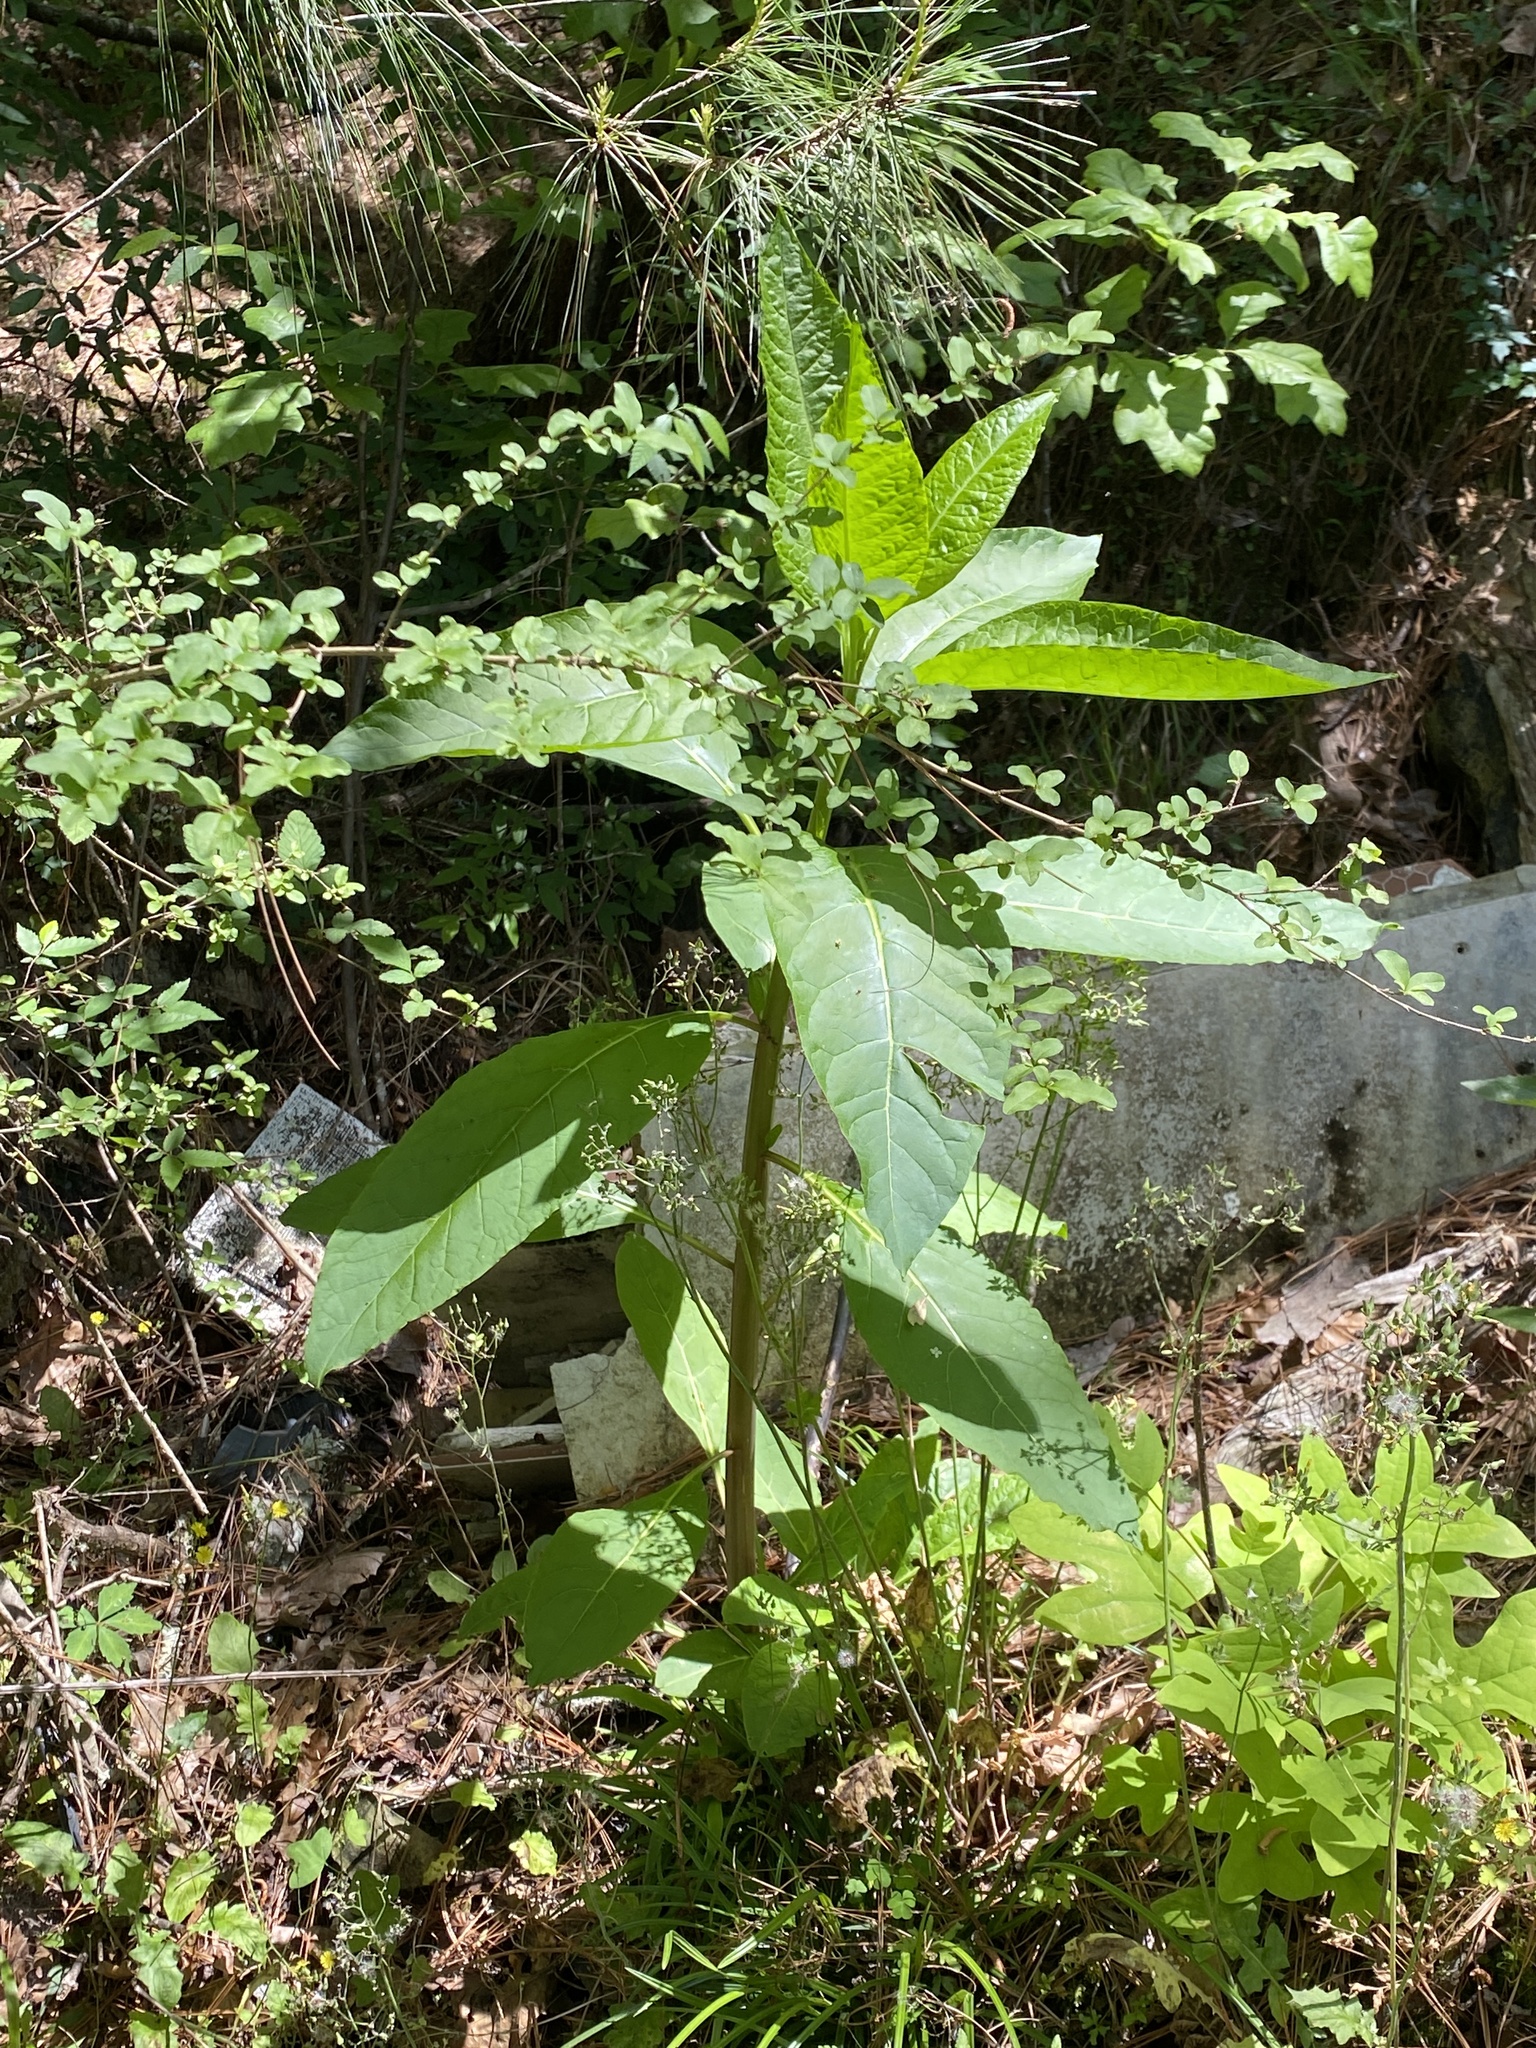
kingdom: Plantae
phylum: Tracheophyta
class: Magnoliopsida
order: Caryophyllales
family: Phytolaccaceae
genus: Phytolacca
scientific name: Phytolacca americana
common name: American pokeweed
